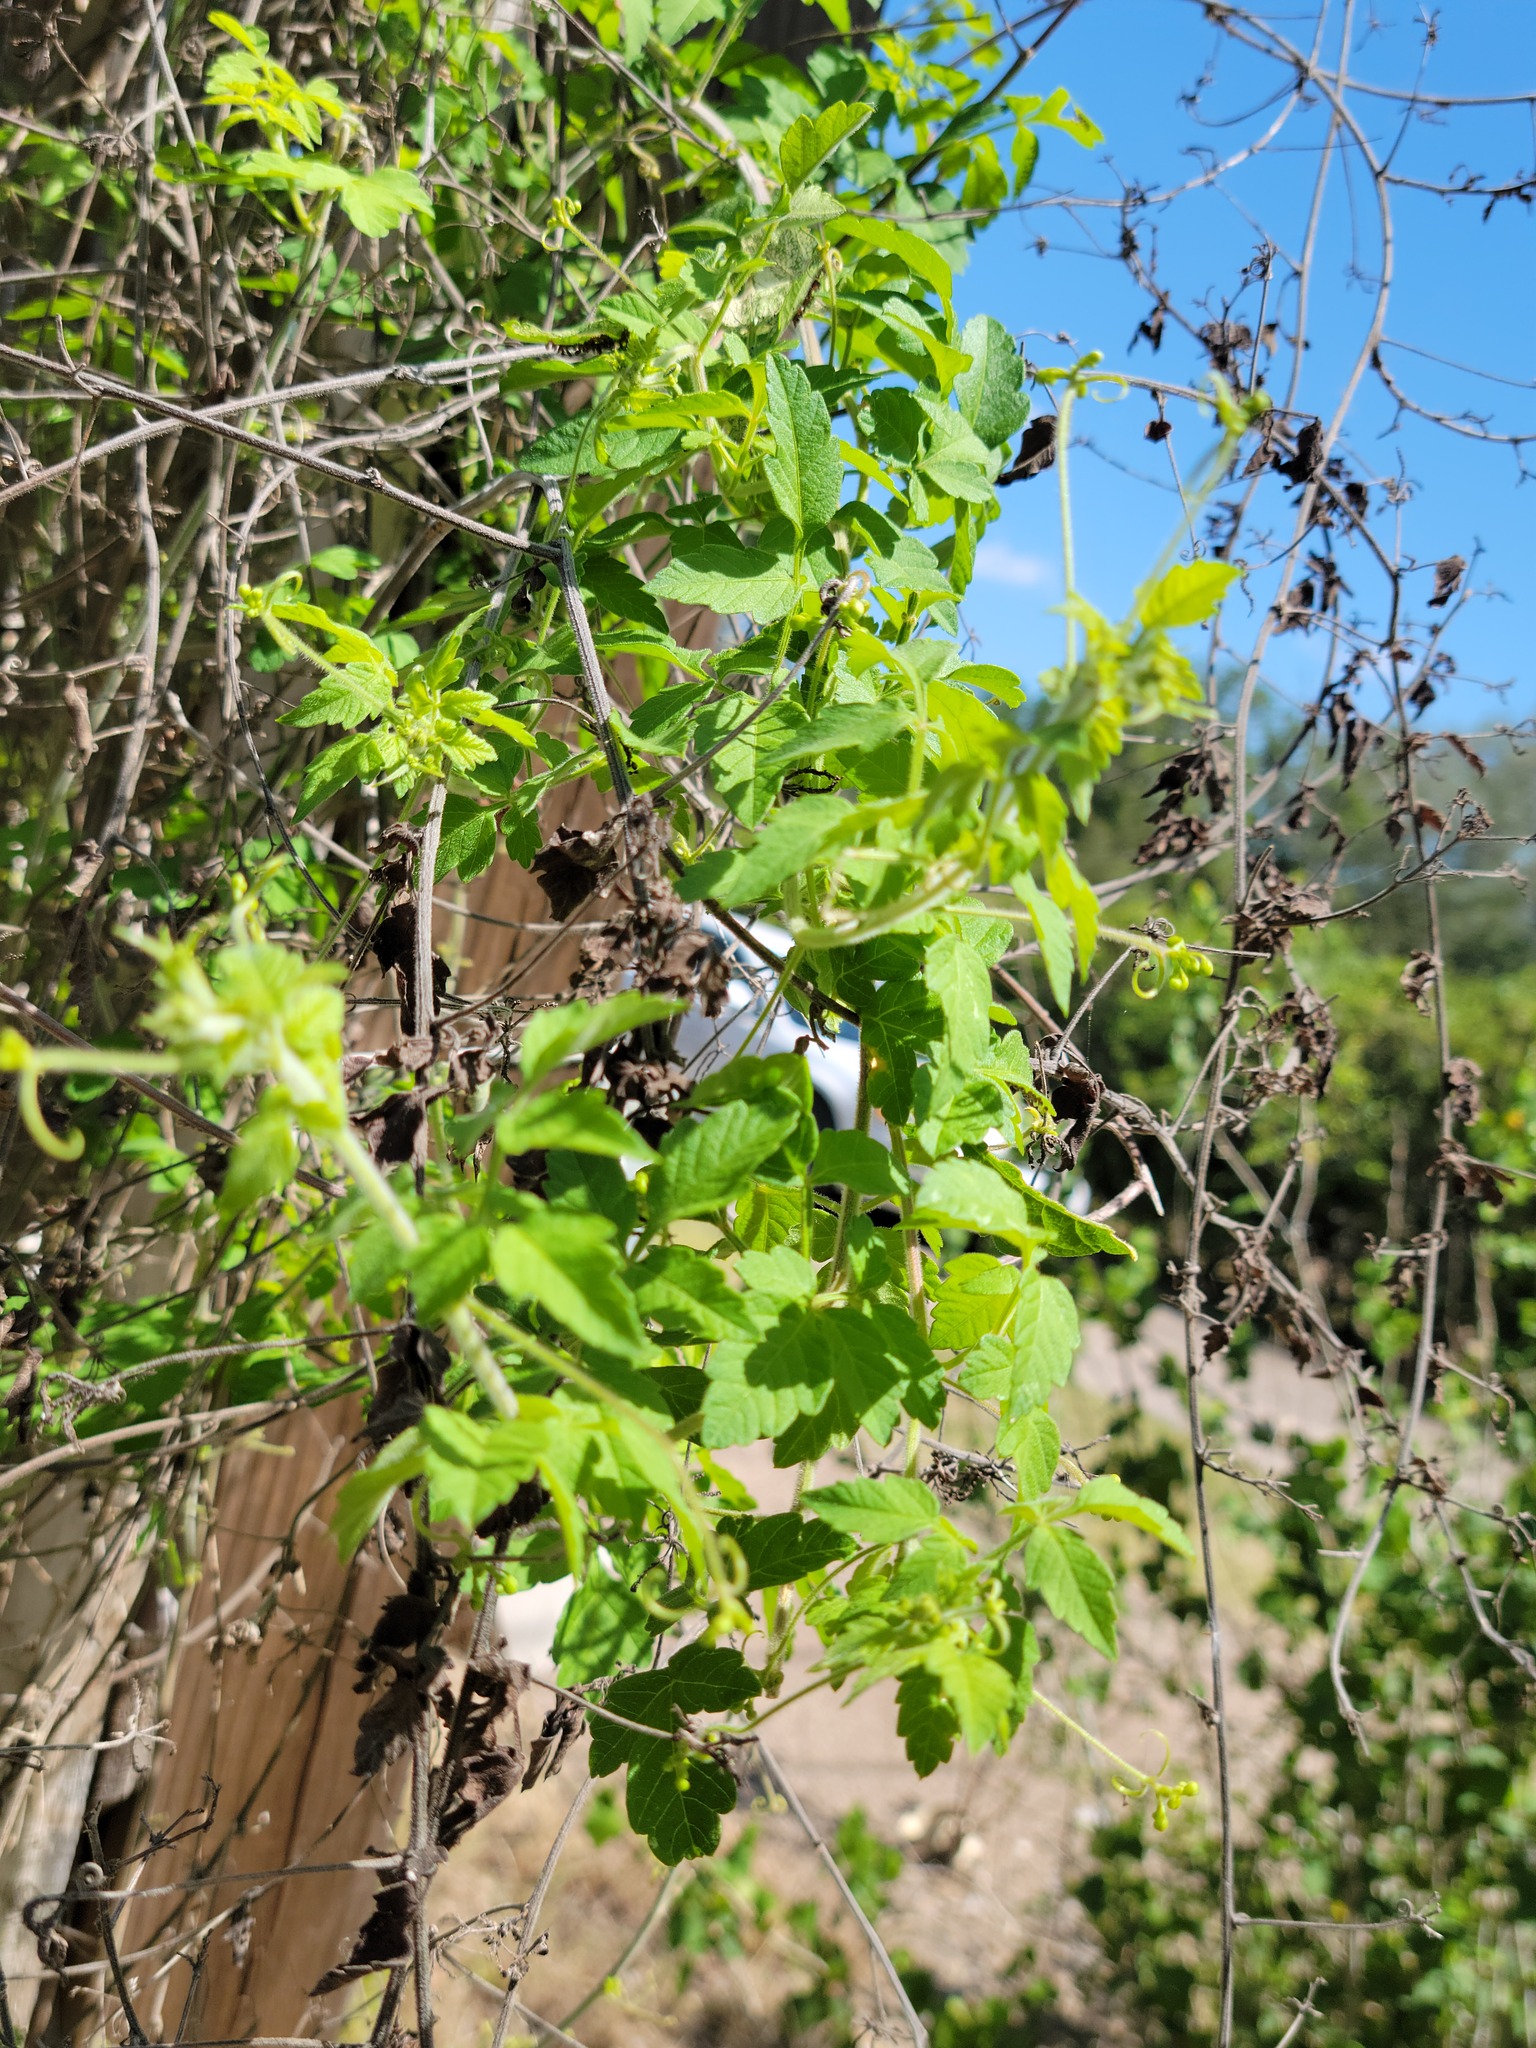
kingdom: Plantae
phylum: Tracheophyta
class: Magnoliopsida
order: Sapindales
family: Sapindaceae
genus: Cardiospermum
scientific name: Cardiospermum halicacabum
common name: Balloon vine
